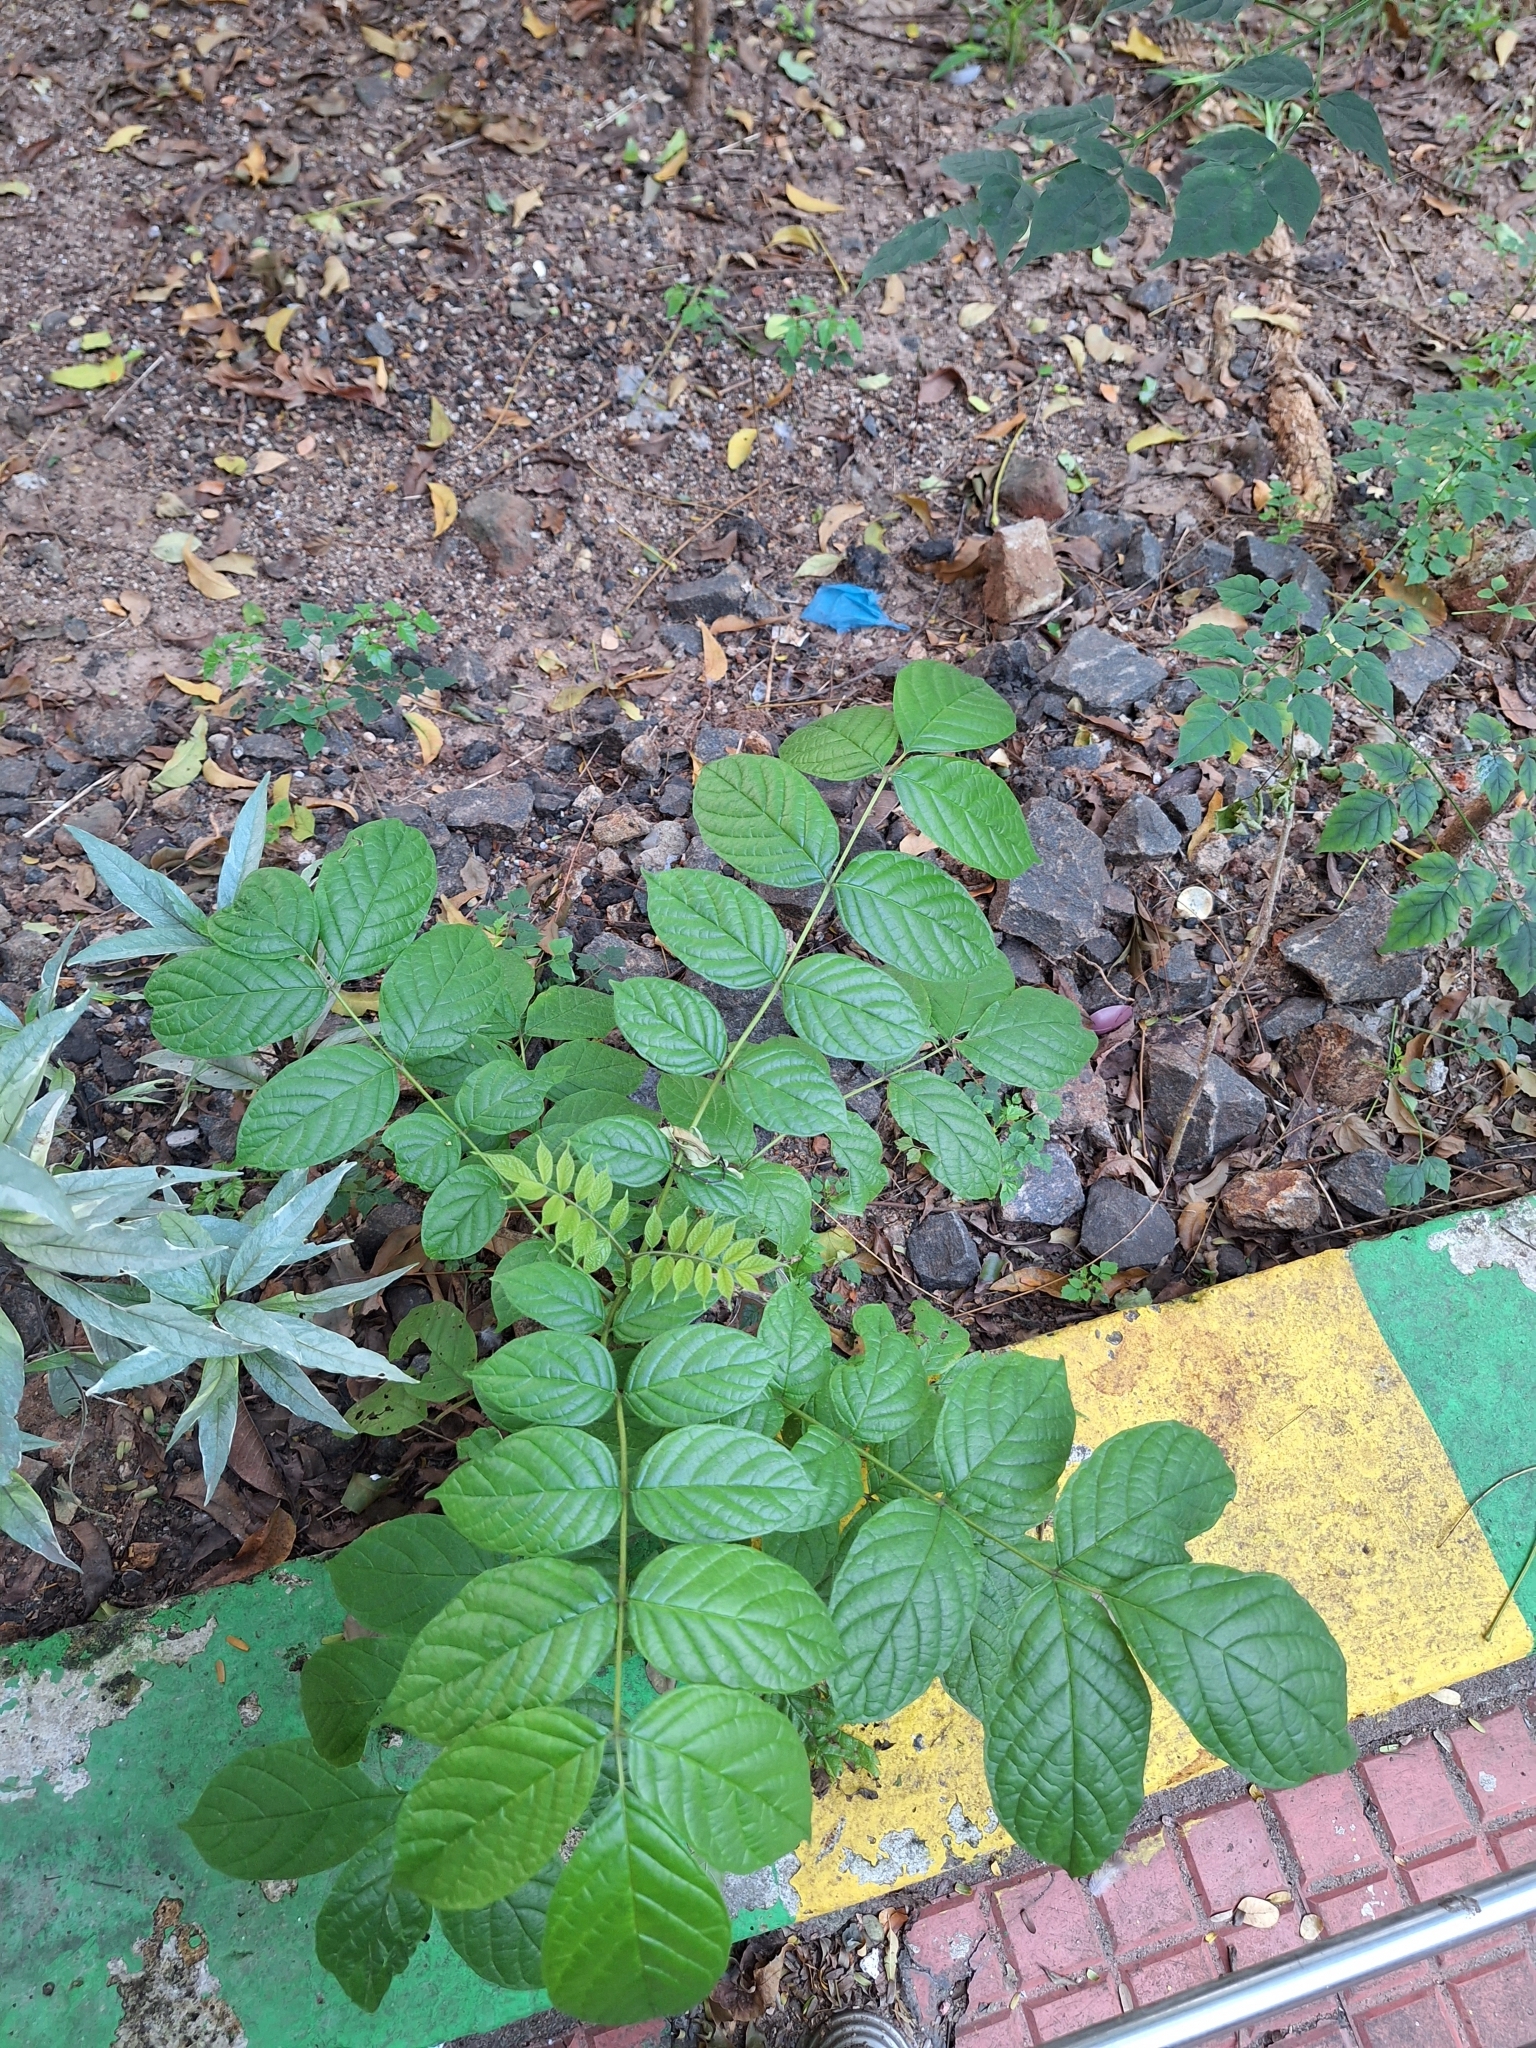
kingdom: Plantae
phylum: Tracheophyta
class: Magnoliopsida
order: Lamiales
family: Bignoniaceae
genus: Spathodea
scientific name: Spathodea campanulata
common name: African tuliptree
